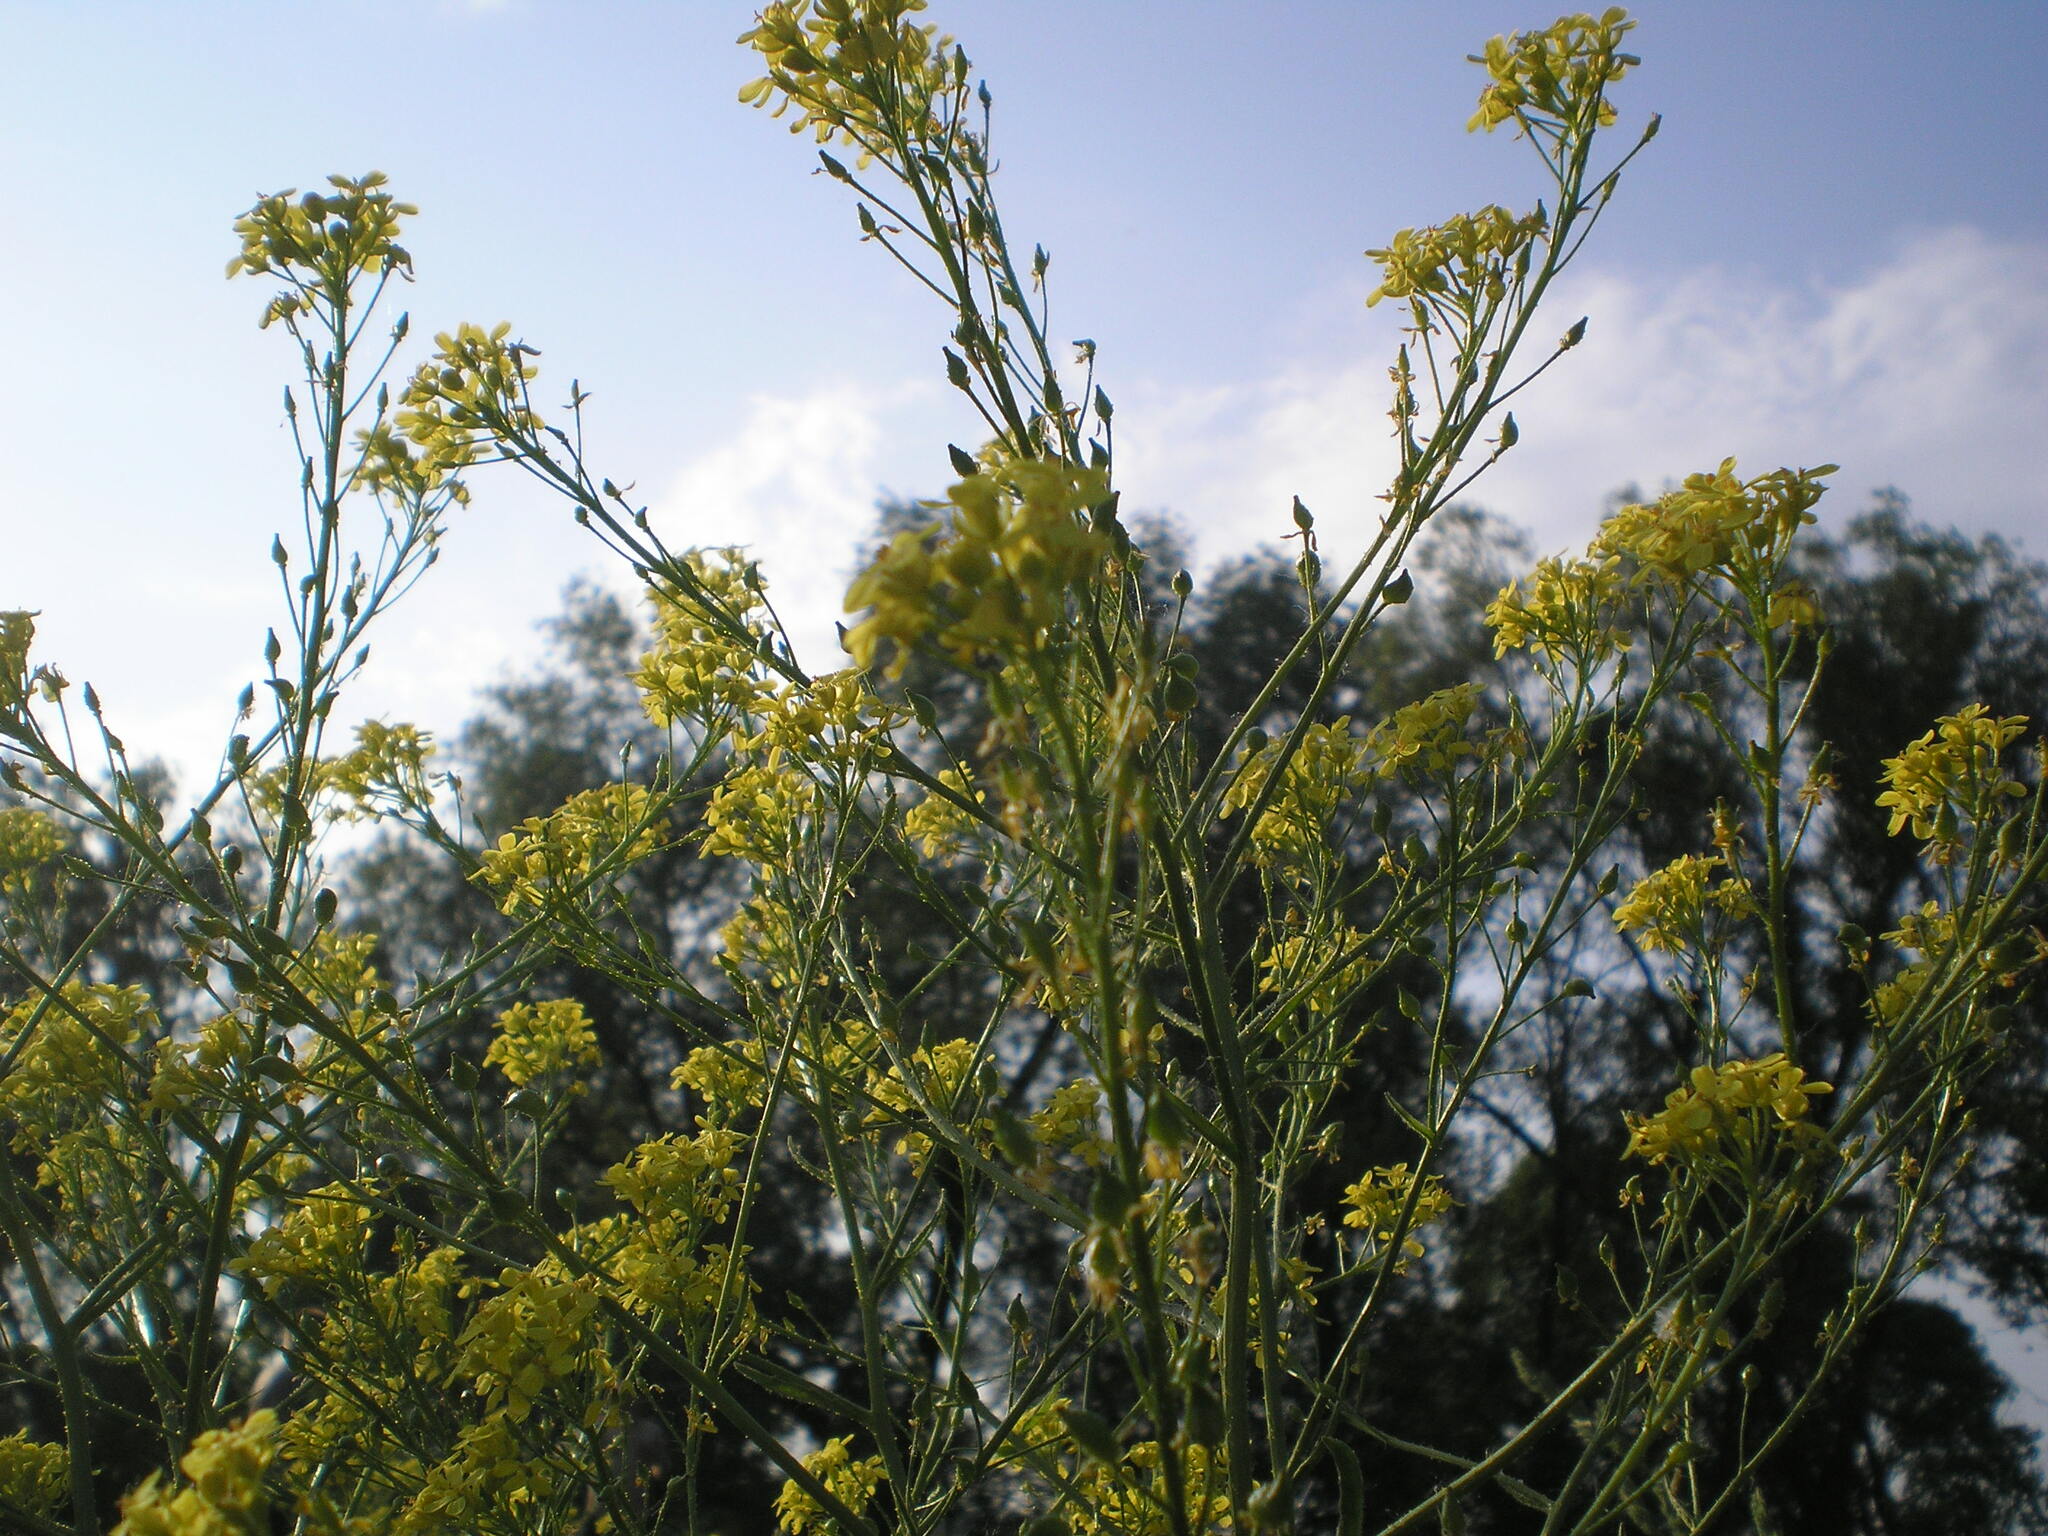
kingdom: Plantae
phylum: Tracheophyta
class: Magnoliopsida
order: Brassicales
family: Brassicaceae
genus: Bunias
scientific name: Bunias orientalis
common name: Warty-cabbage
